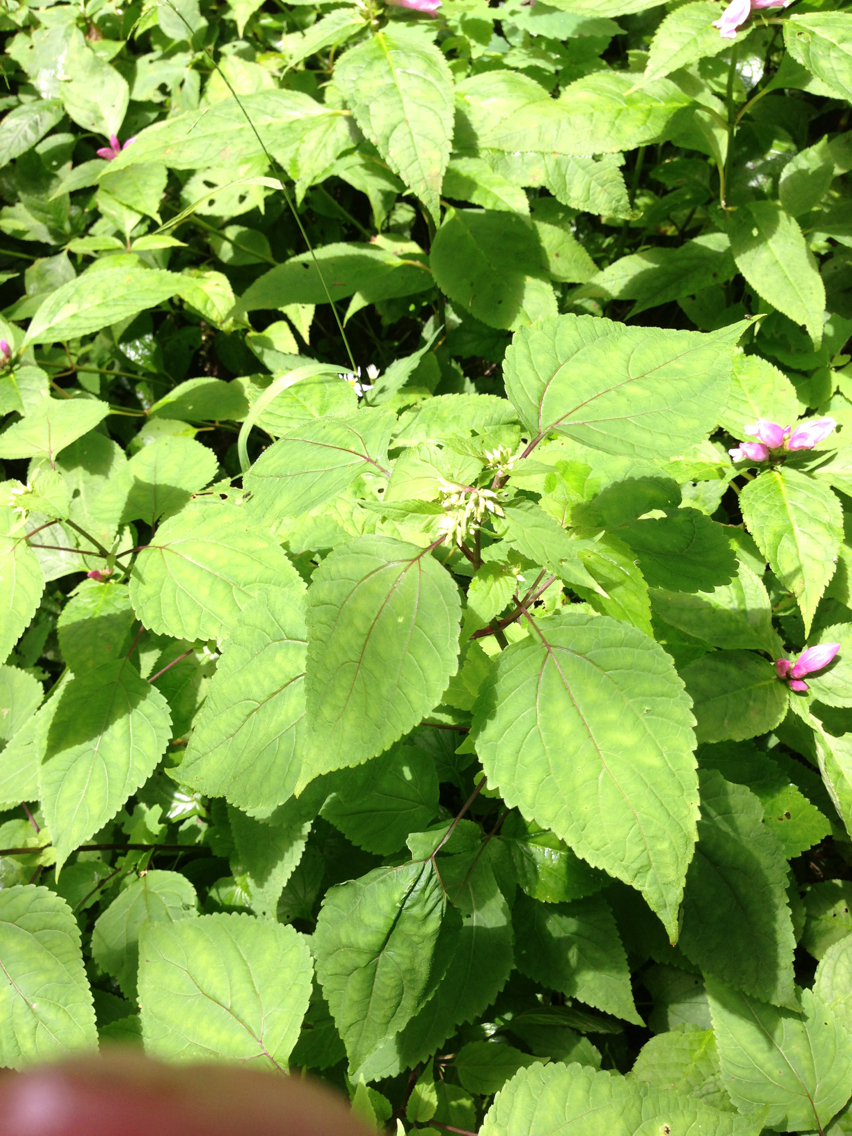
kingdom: Plantae
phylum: Tracheophyta
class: Magnoliopsida
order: Asterales
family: Asteraceae
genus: Ageratina
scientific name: Ageratina altissima
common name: White snakeroot
